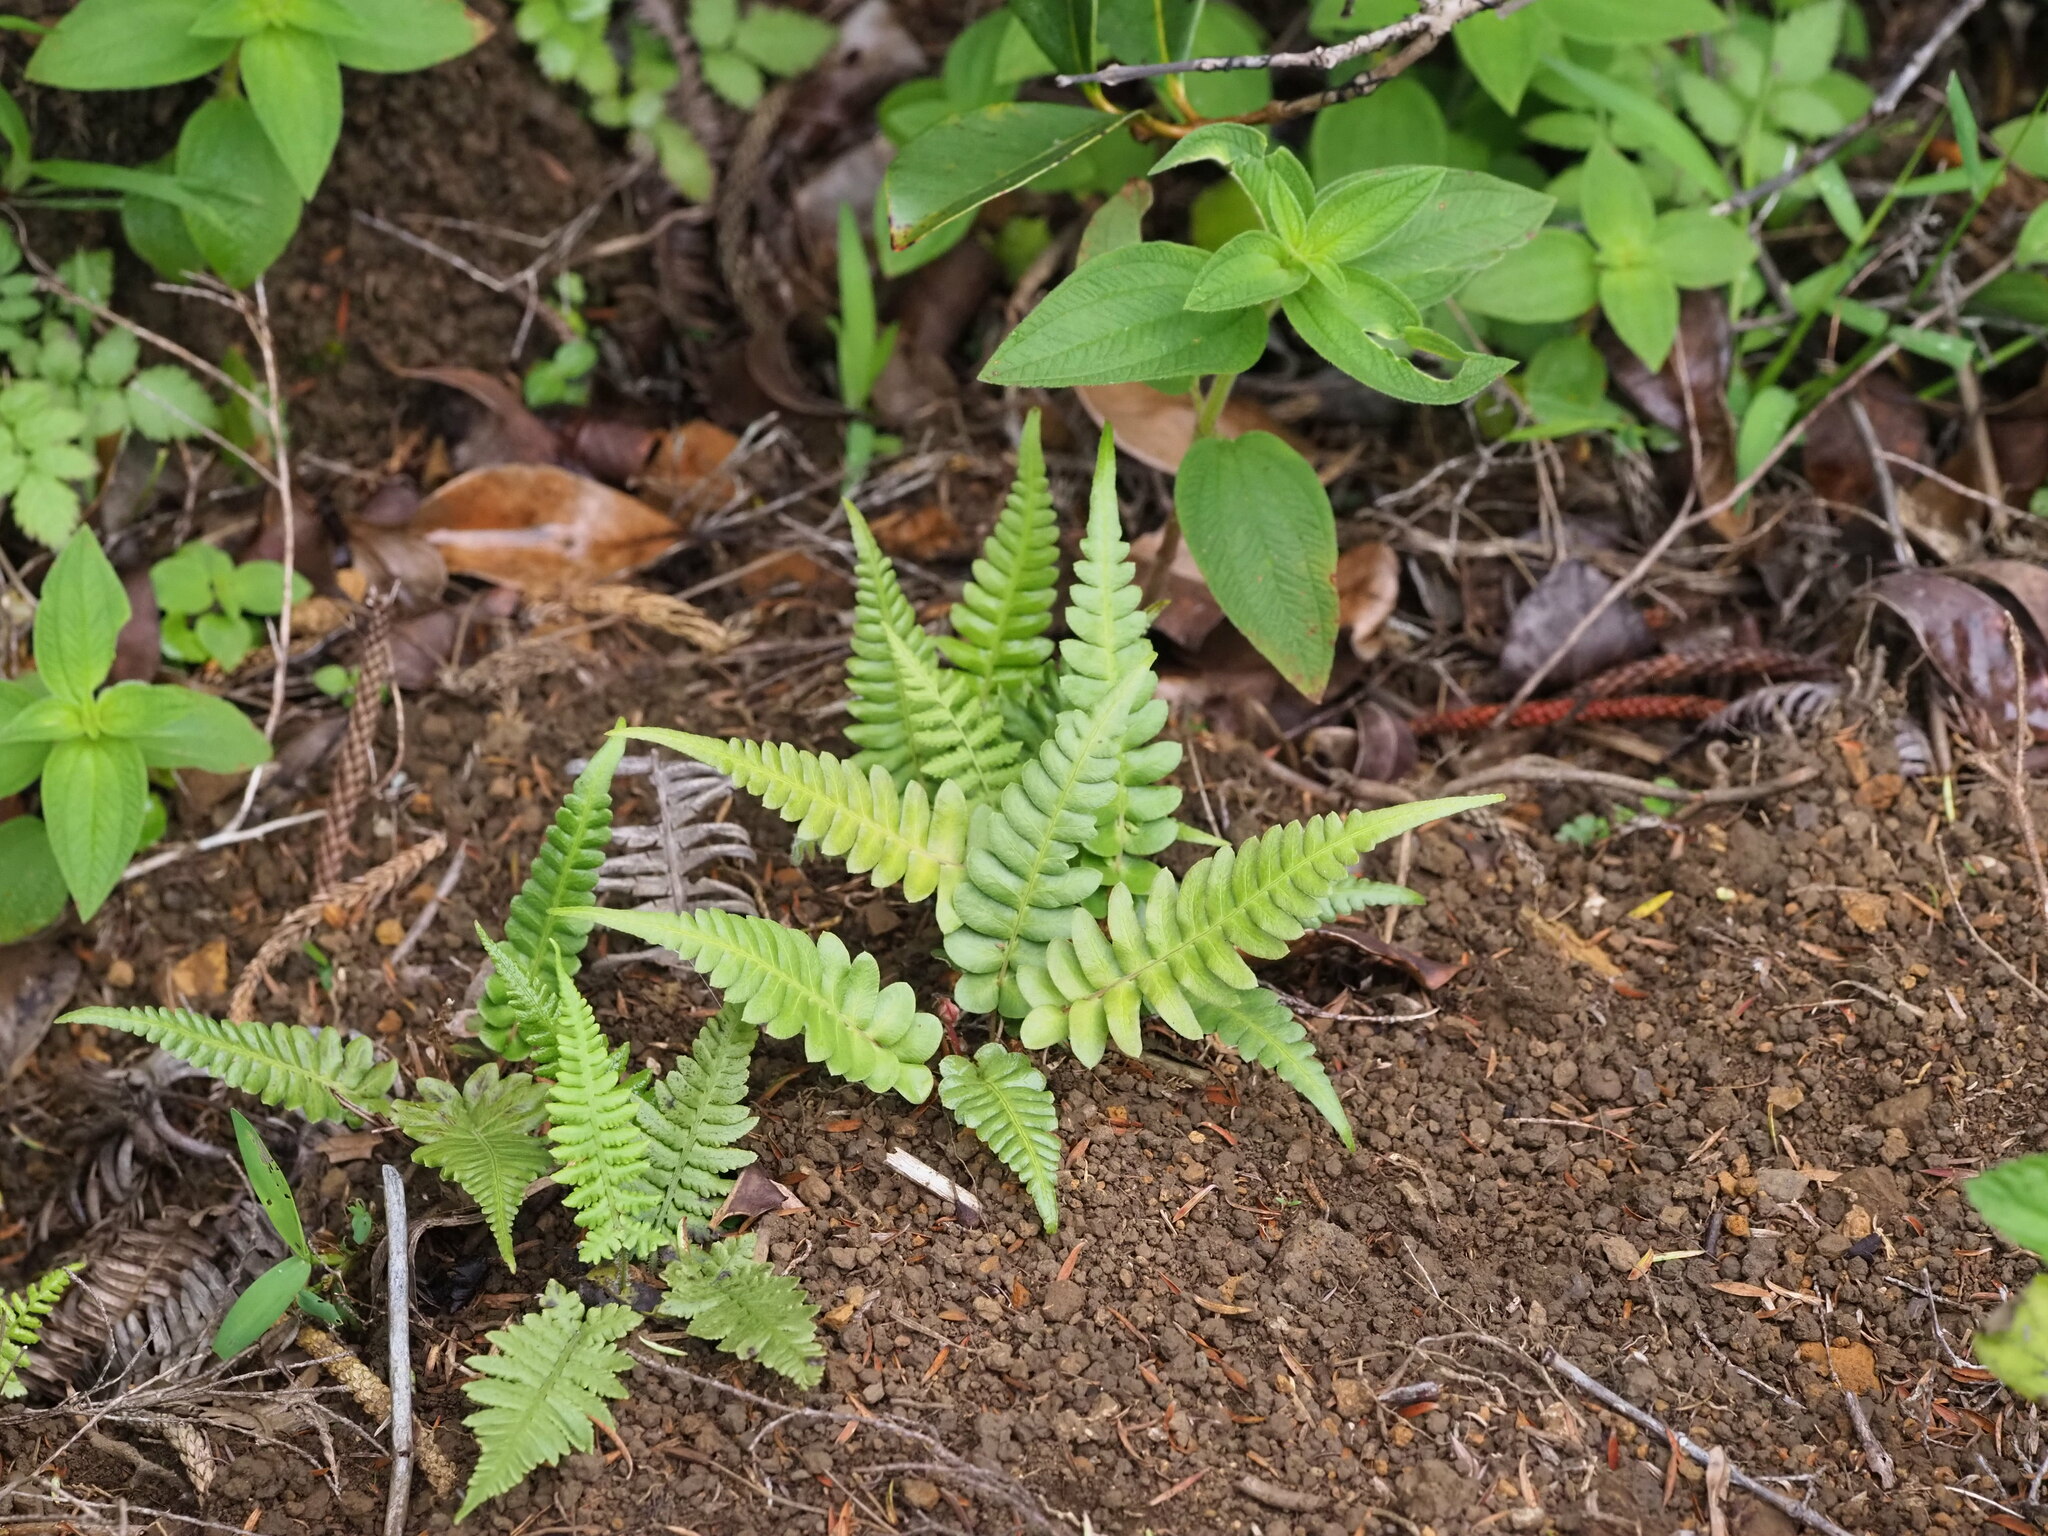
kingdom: Plantae
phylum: Tracheophyta
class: Polypodiopsida
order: Polypodiales
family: Blechnaceae
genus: Blechnum
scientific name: Blechnum appendiculatum
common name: Palm fern
